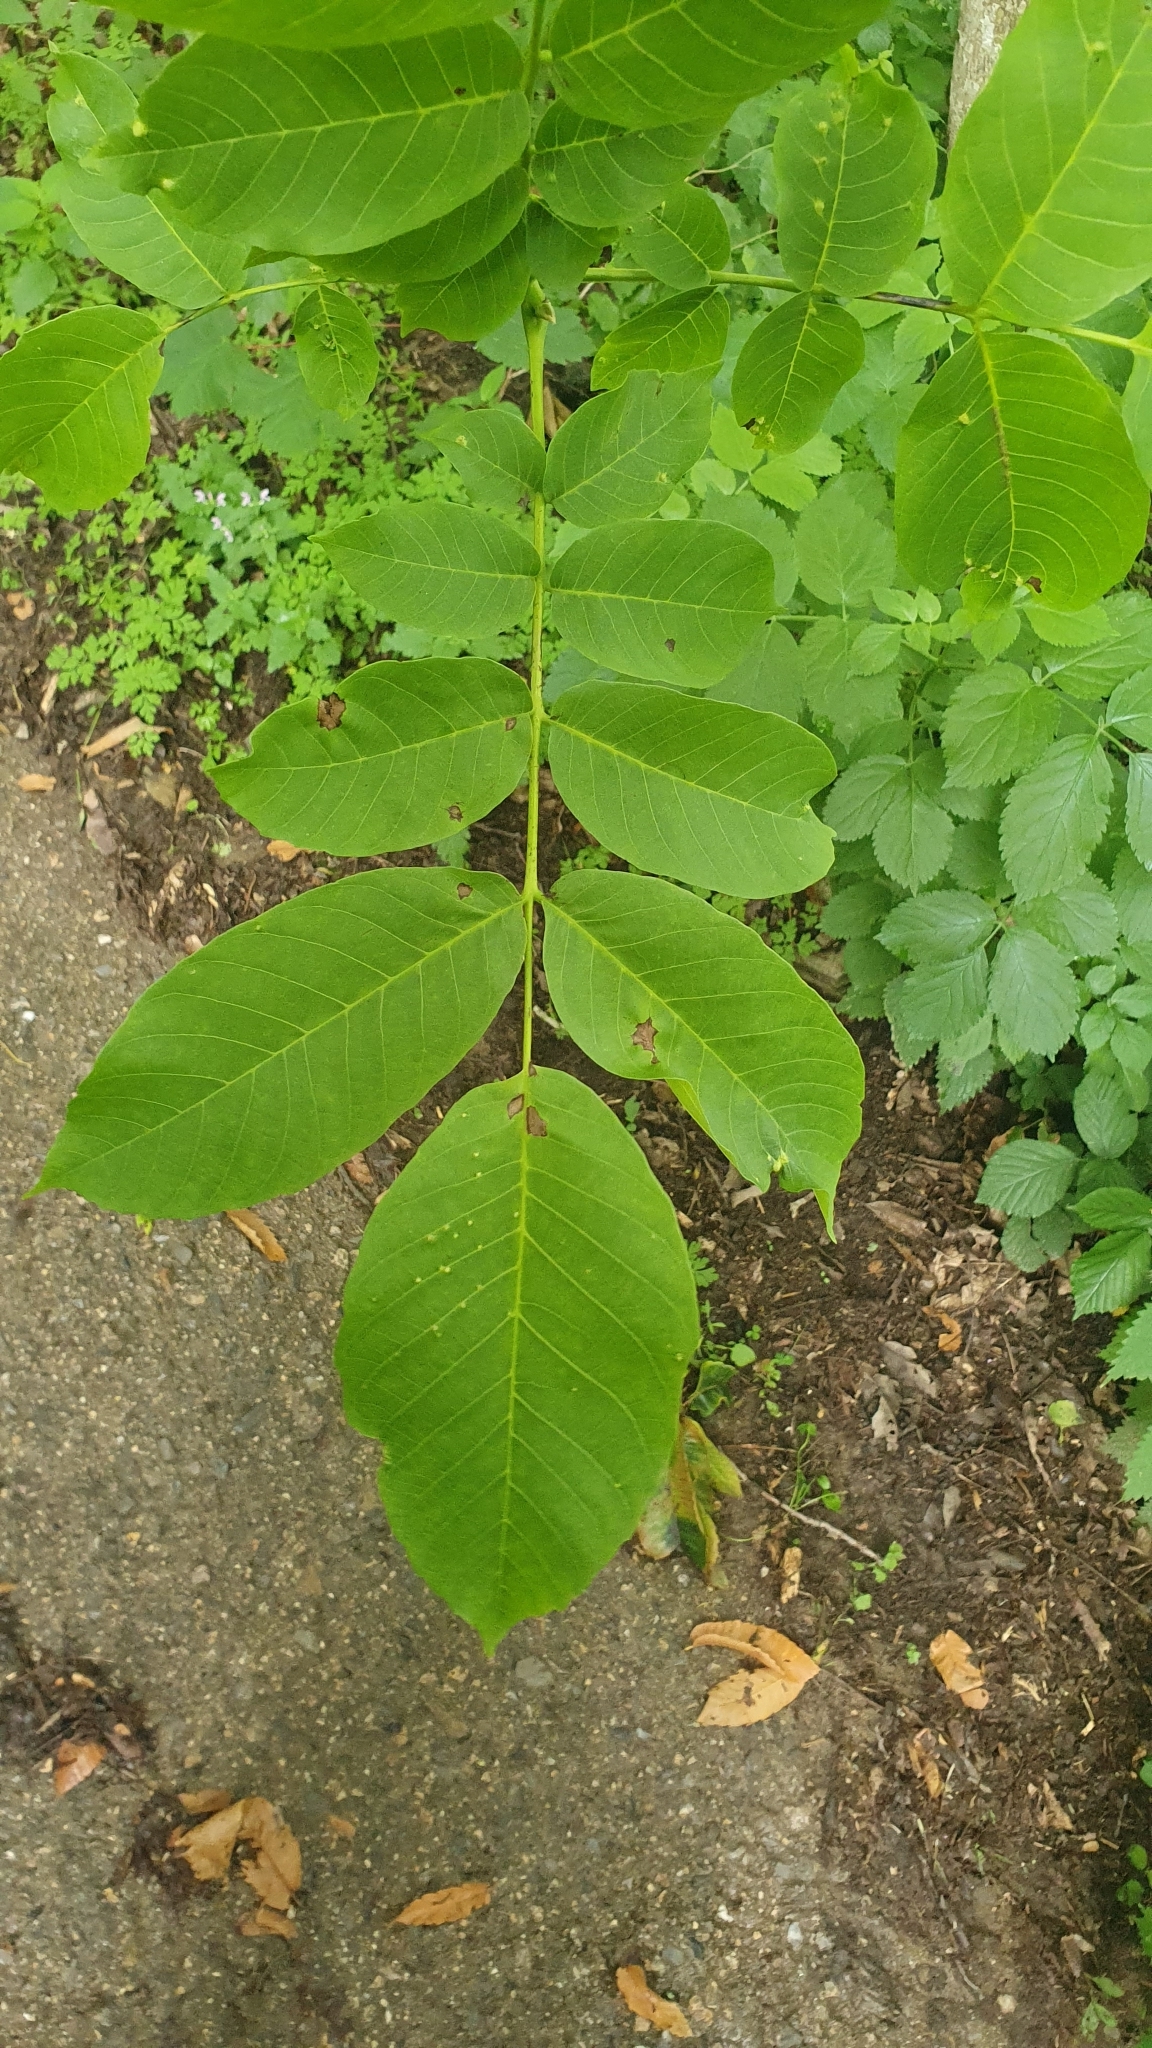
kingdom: Plantae
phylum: Tracheophyta
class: Magnoliopsida
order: Fagales
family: Juglandaceae
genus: Juglans
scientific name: Juglans regia
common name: Walnut
